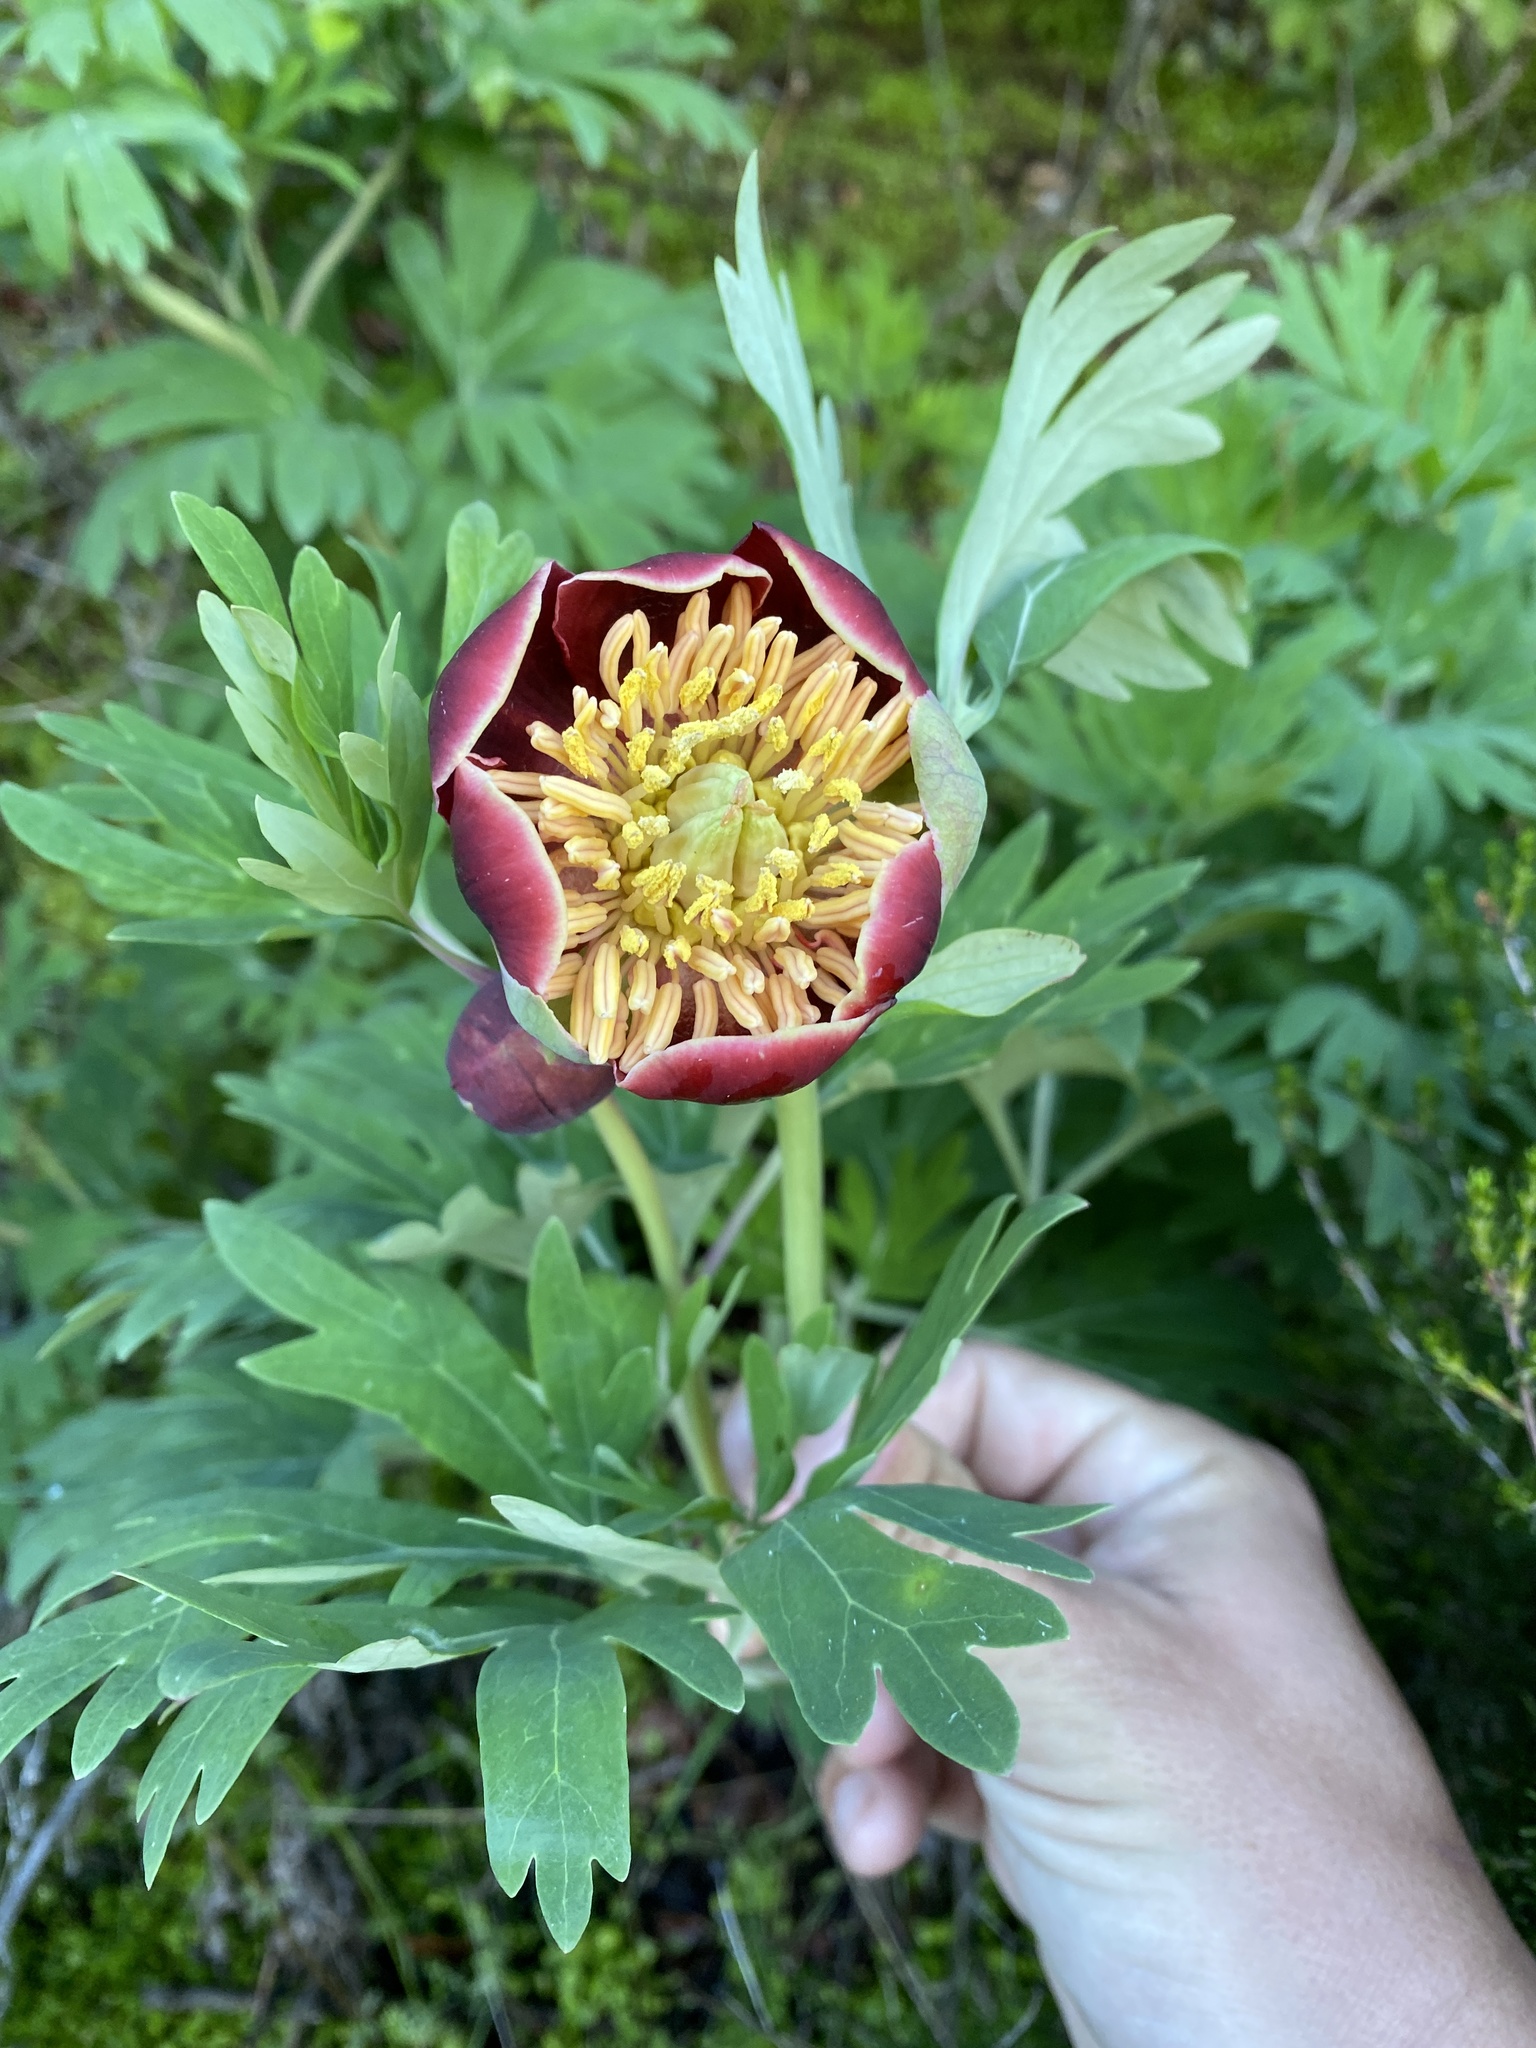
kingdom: Plantae
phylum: Tracheophyta
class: Magnoliopsida
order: Saxifragales
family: Paeoniaceae
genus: Paeonia
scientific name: Paeonia californica
